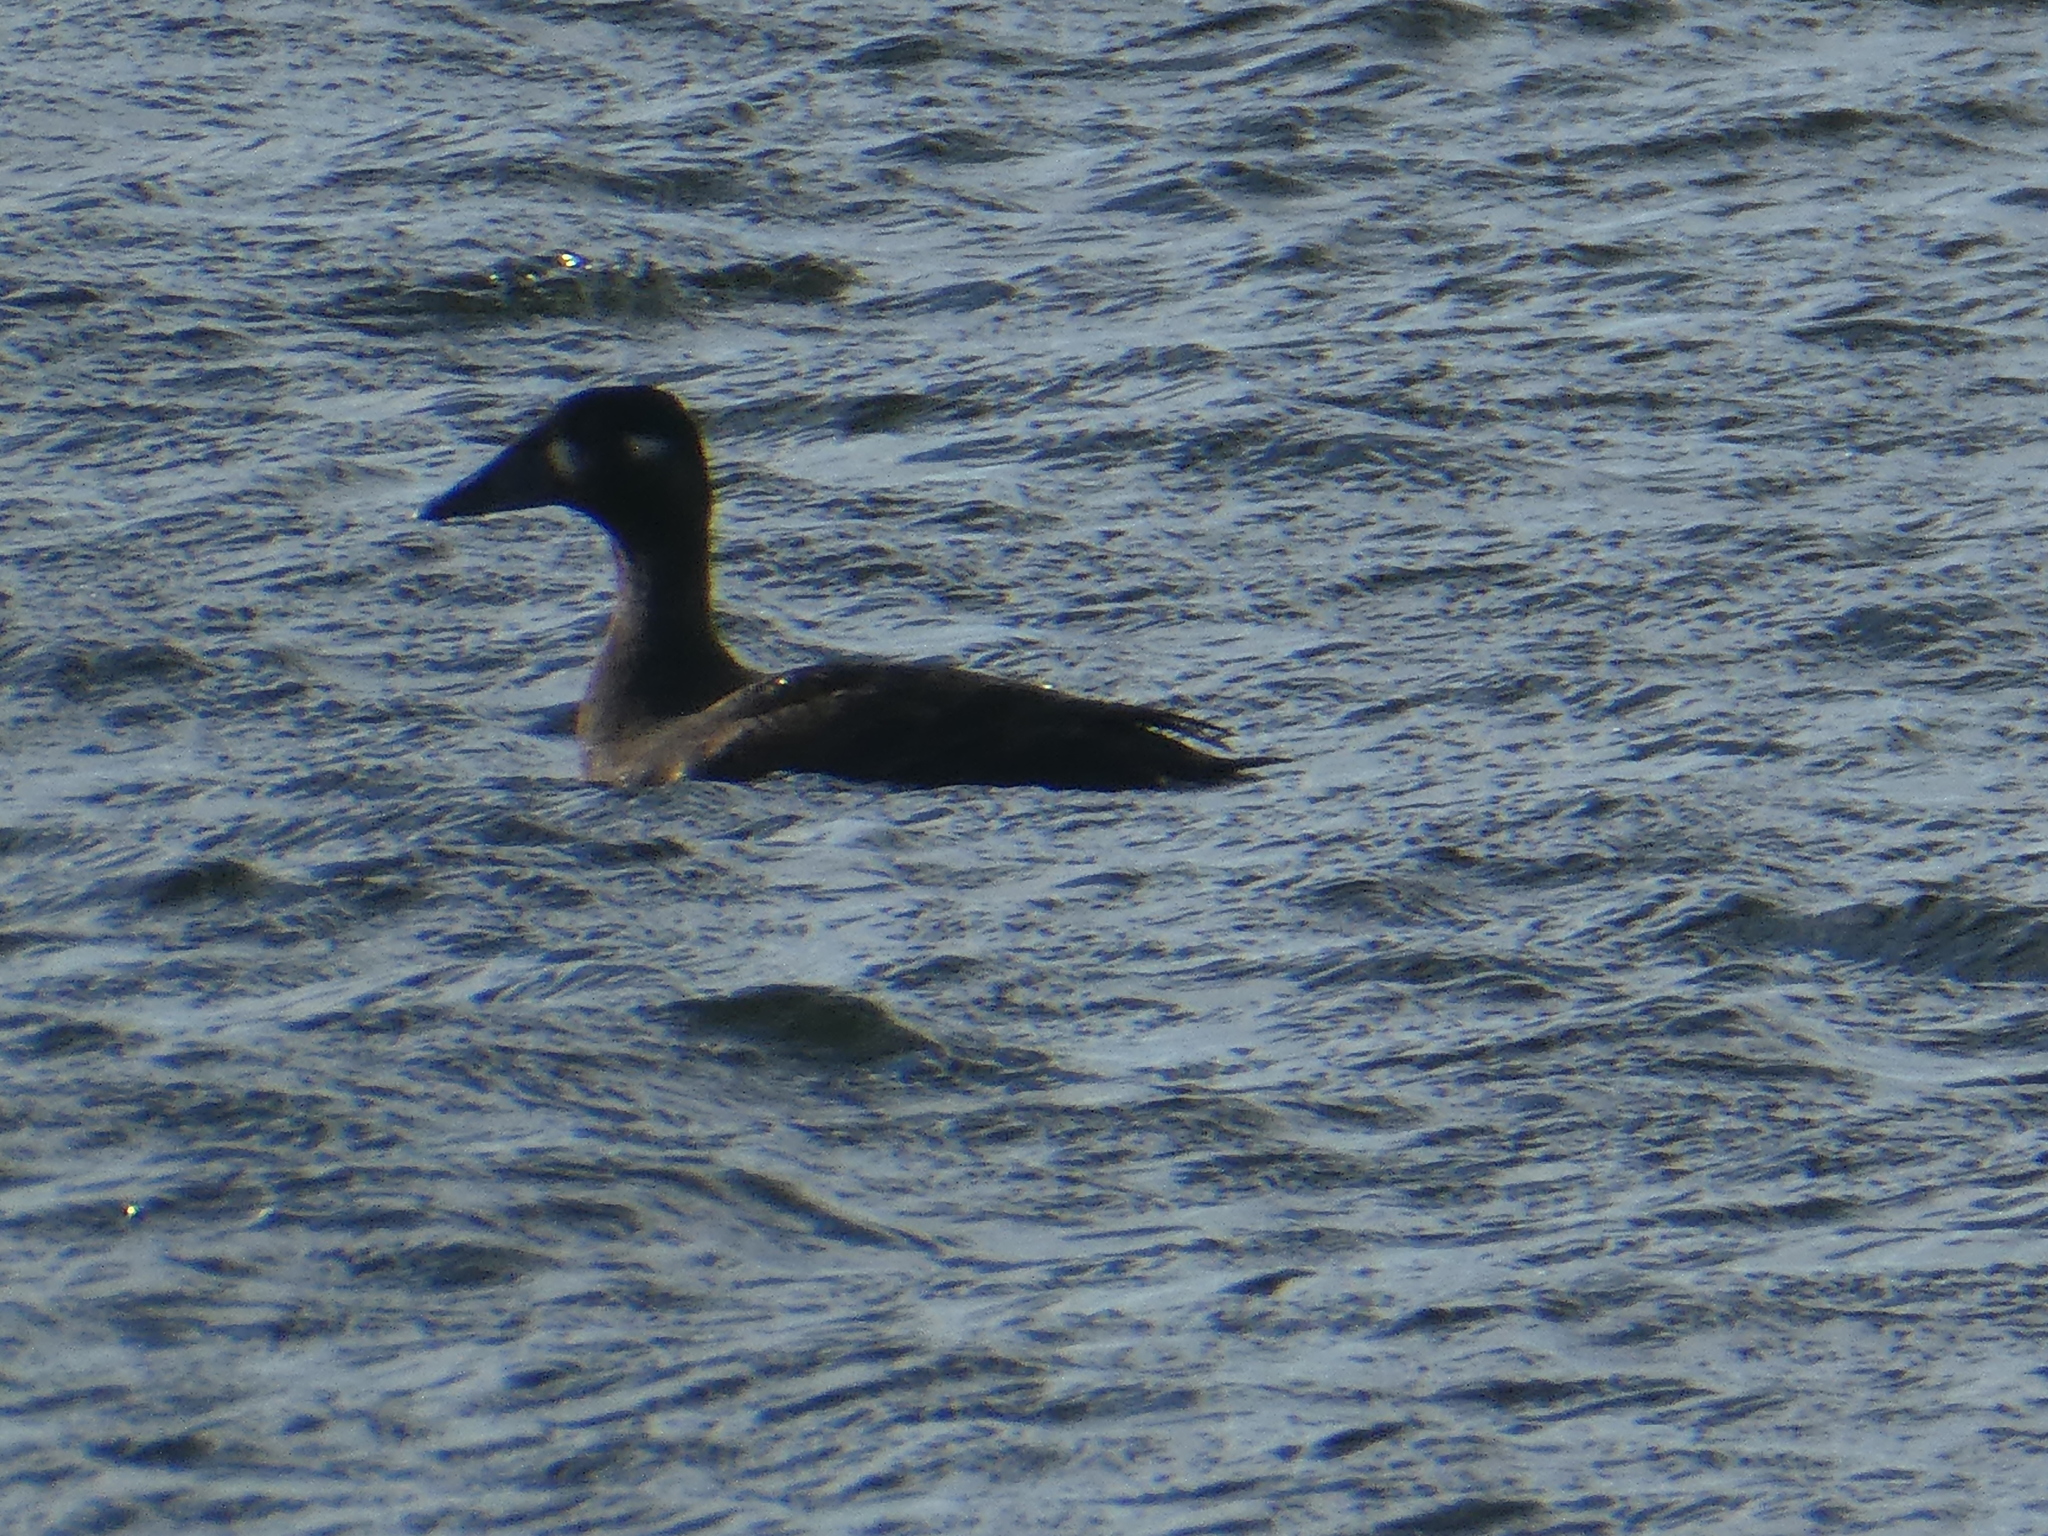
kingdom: Animalia
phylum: Chordata
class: Aves
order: Anseriformes
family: Anatidae
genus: Melanitta
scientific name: Melanitta perspicillata
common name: Surf scoter
